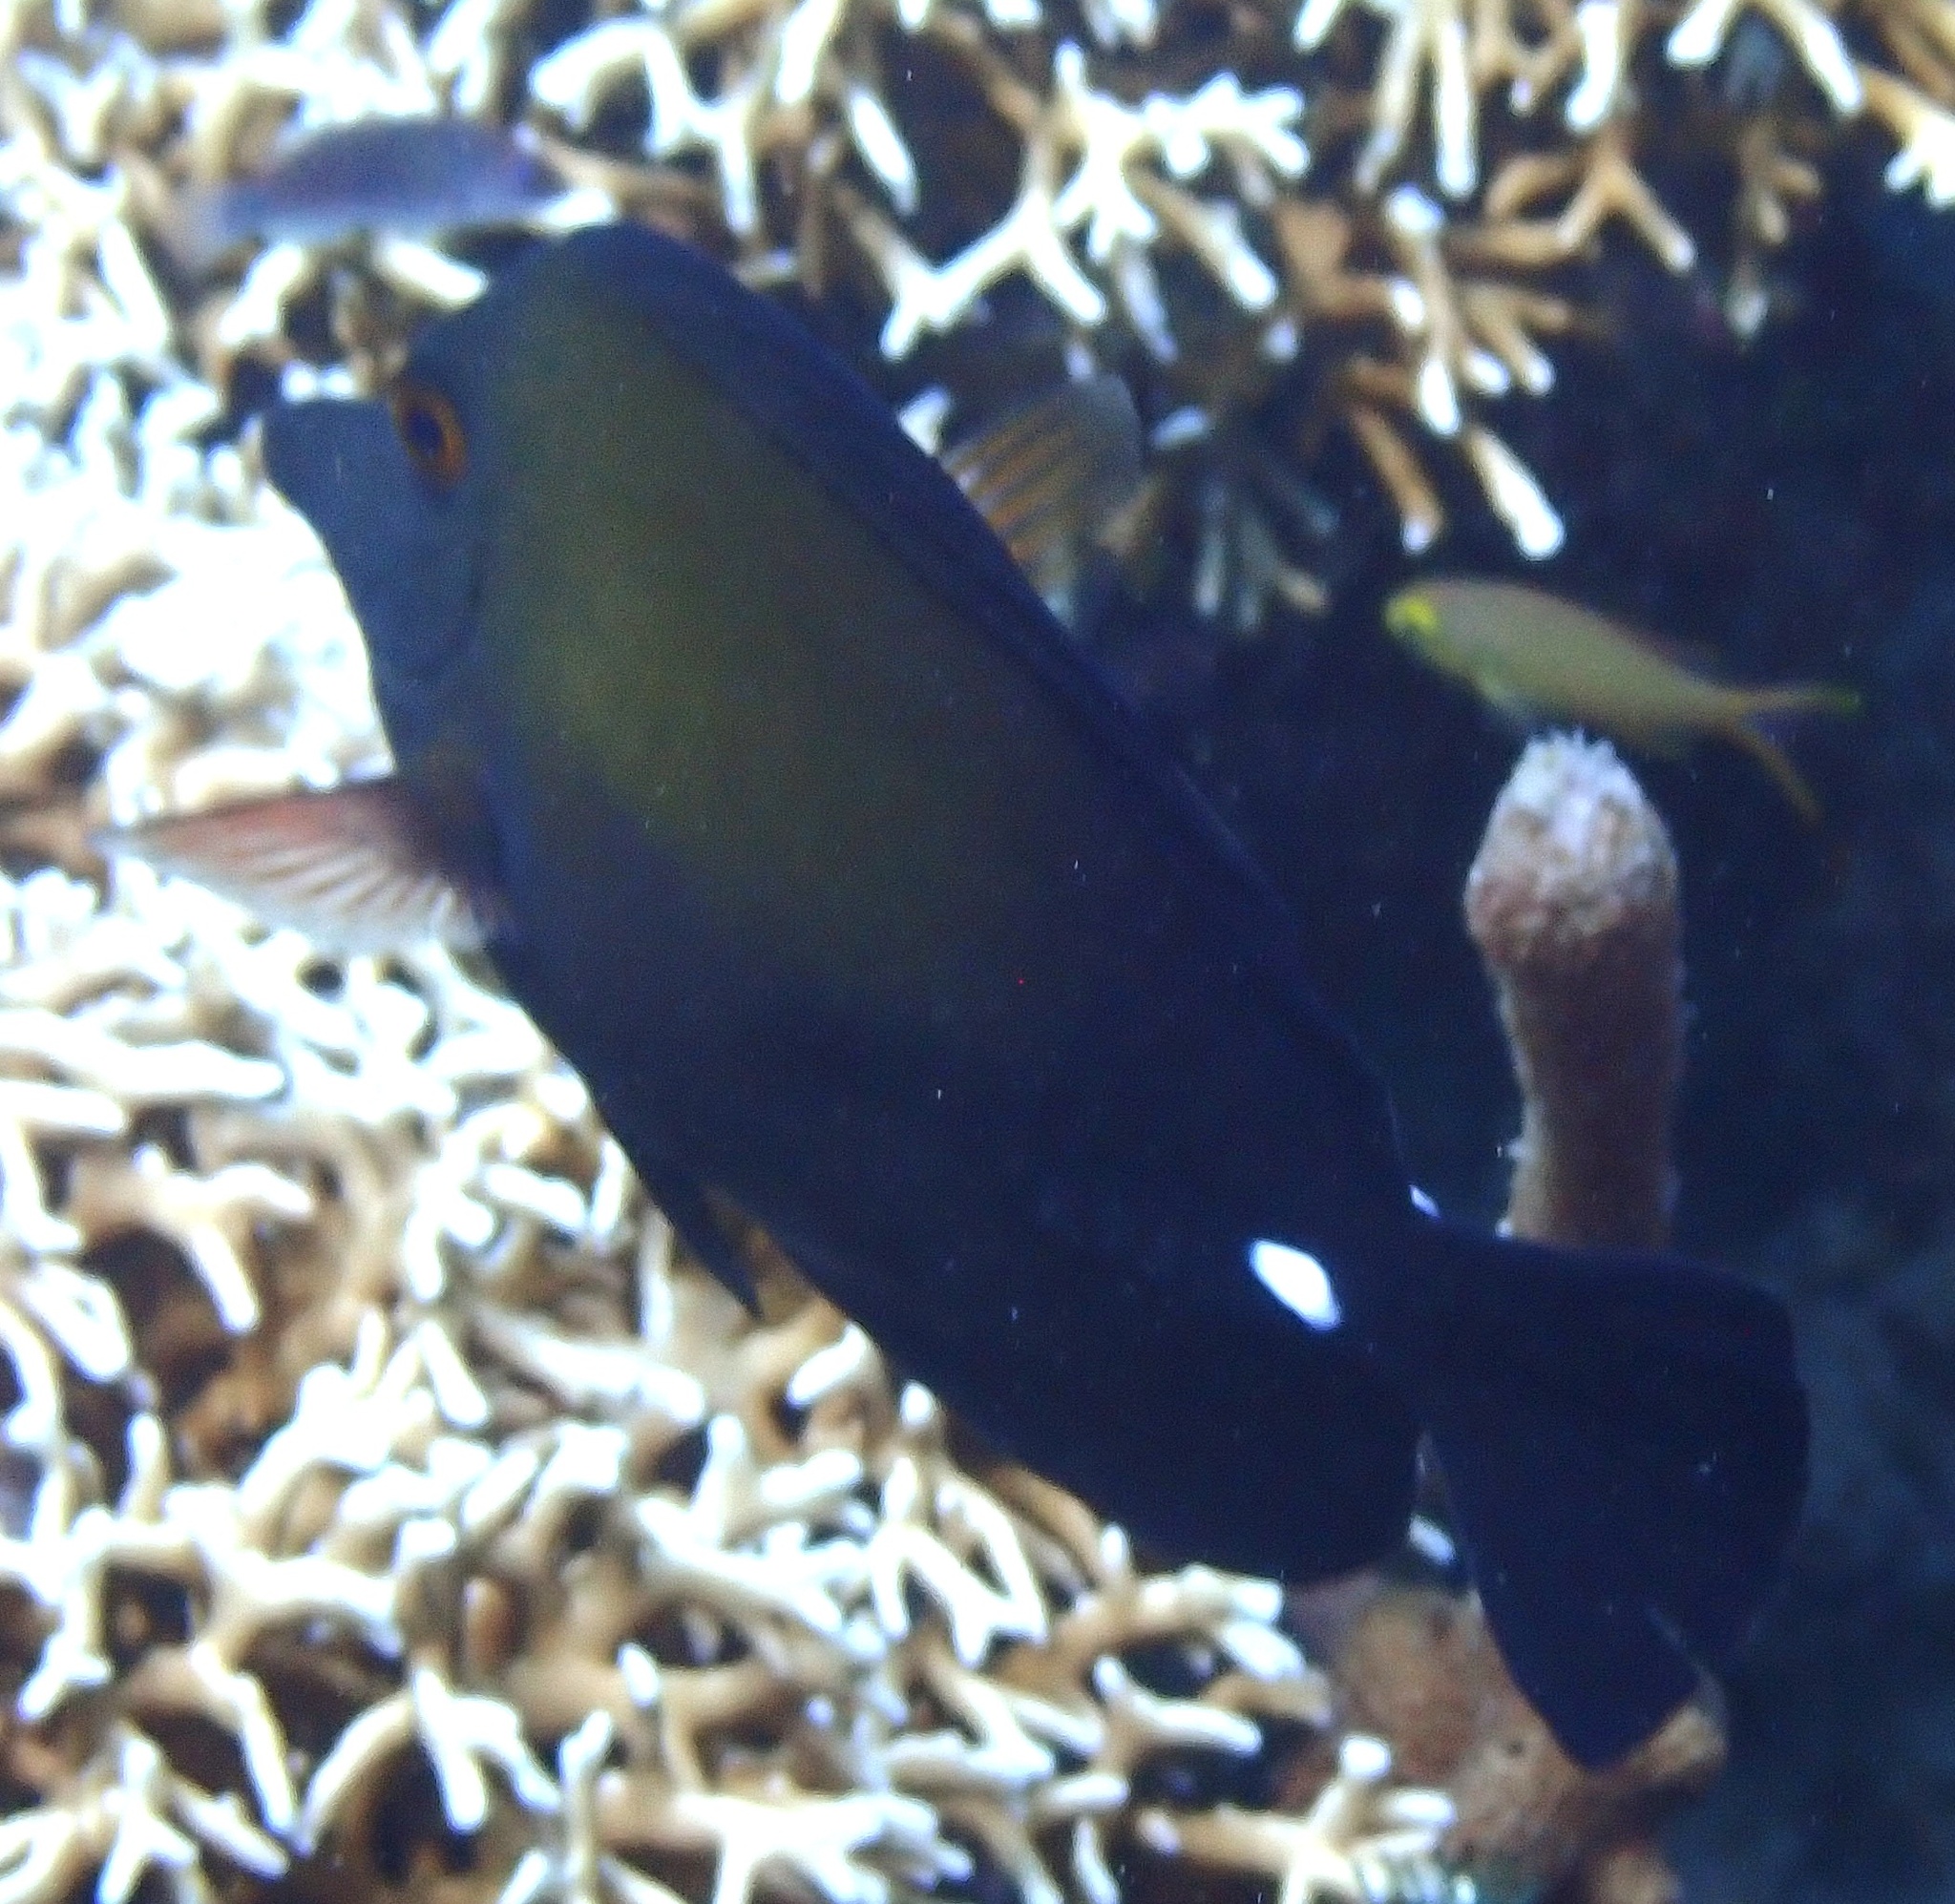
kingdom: Animalia
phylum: Chordata
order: Perciformes
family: Acanthuridae
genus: Zebrasoma
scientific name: Zebrasoma scopas
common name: Twotone tang
